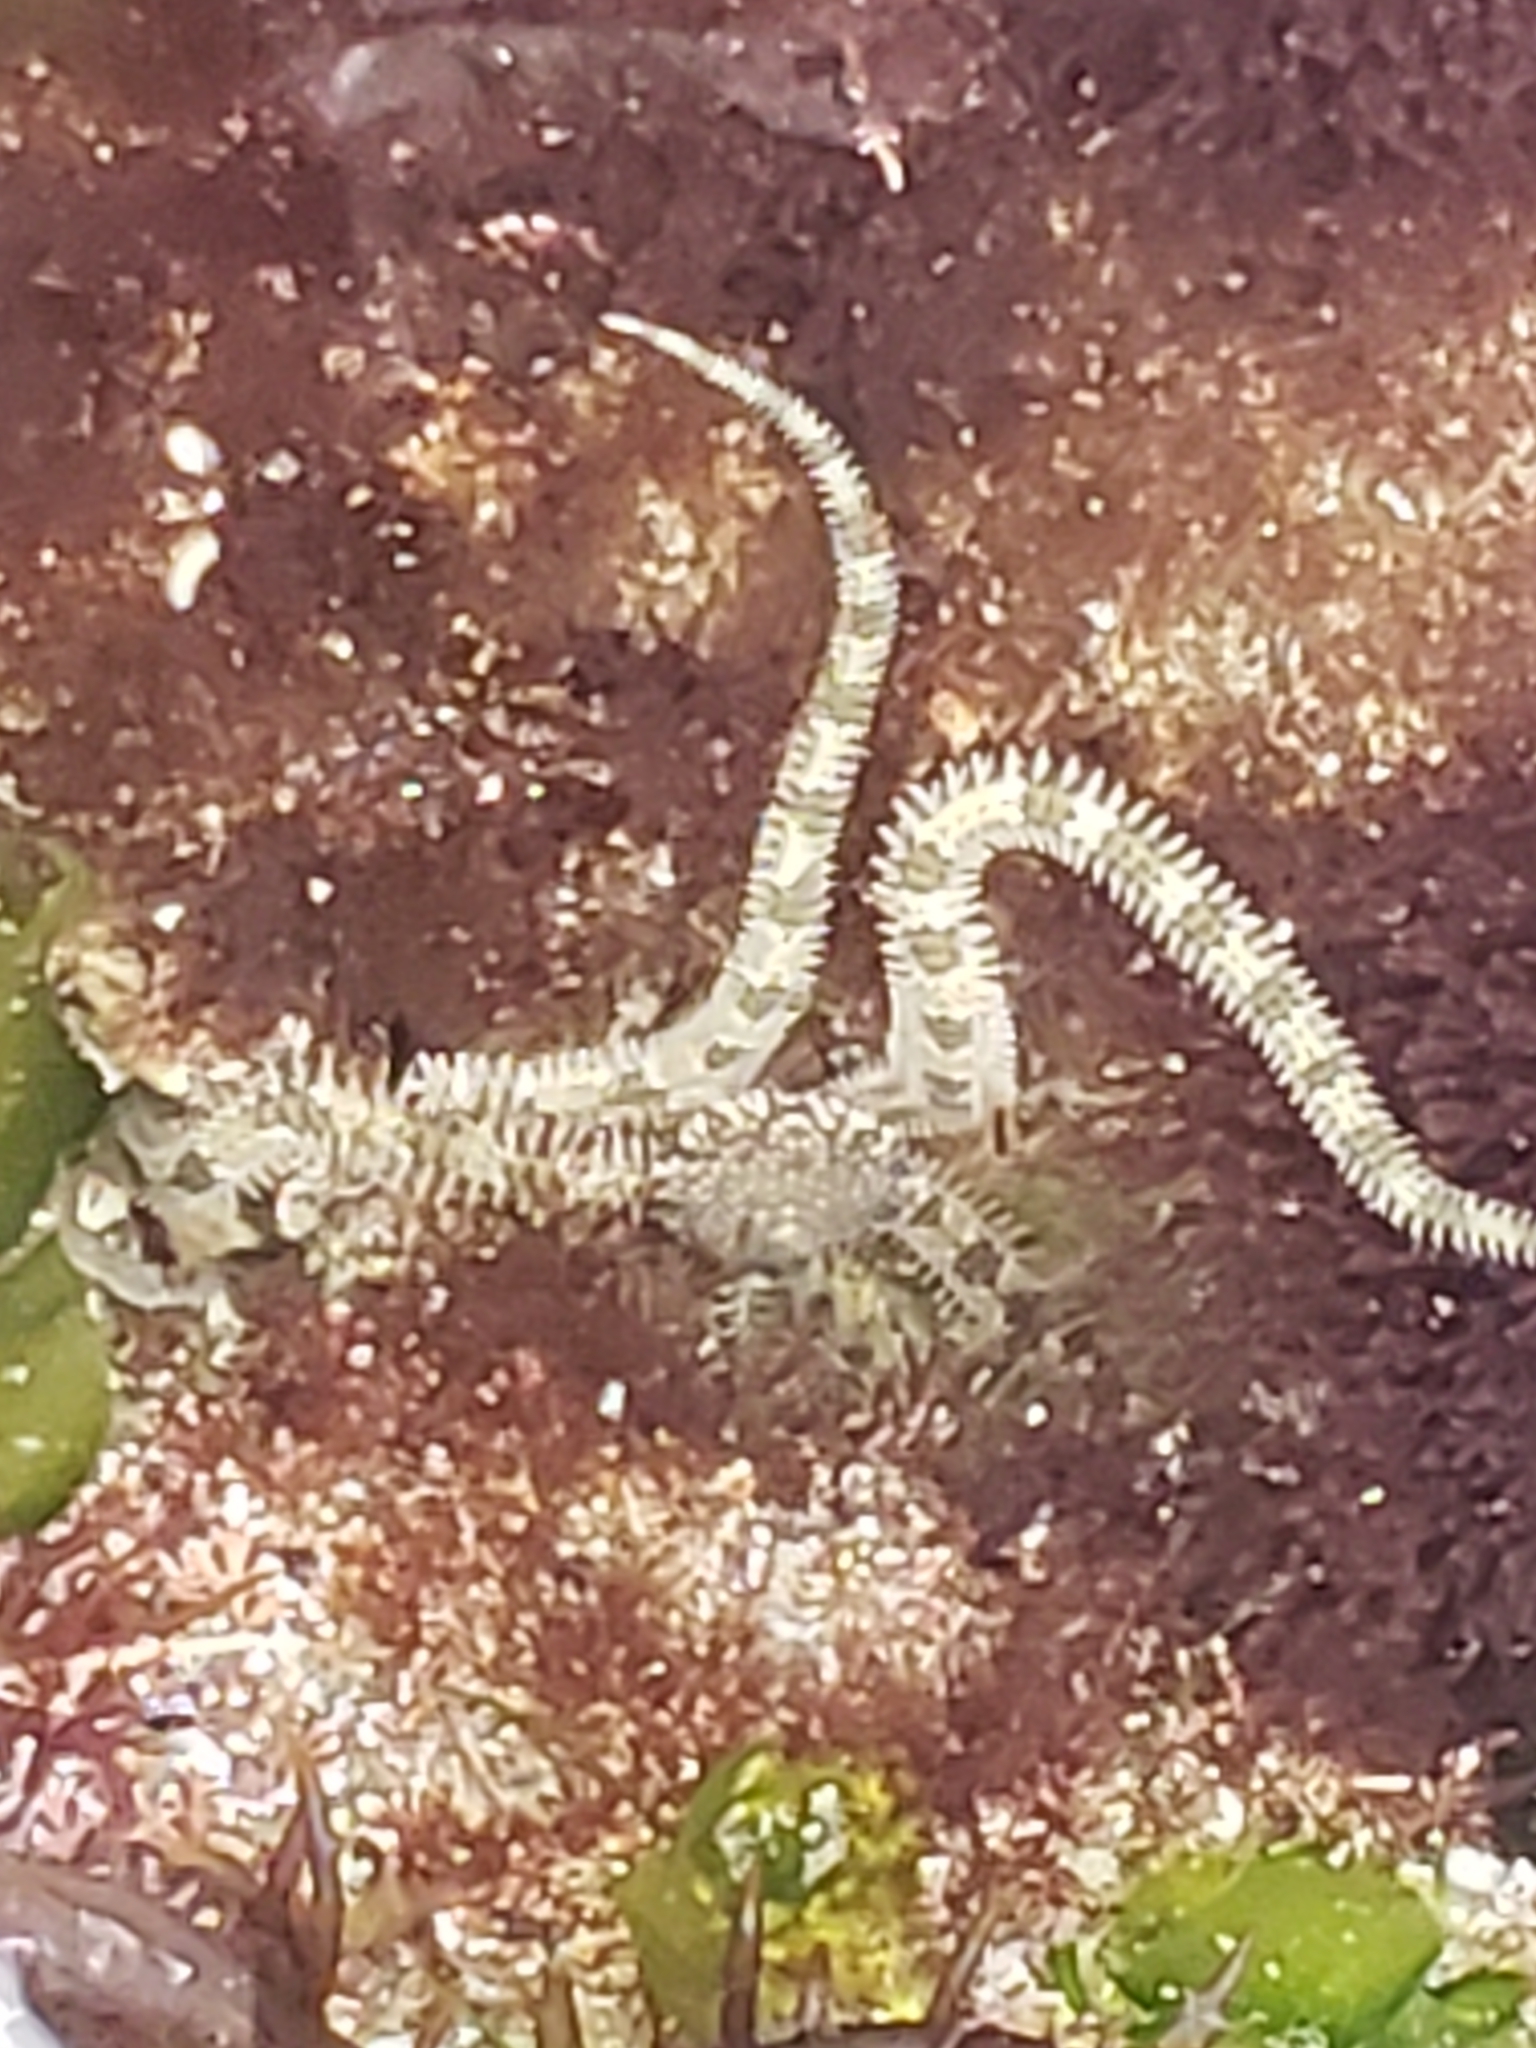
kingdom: Animalia
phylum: Echinodermata
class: Ophiuroidea
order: Amphilepidida
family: Ophionereididae
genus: Ophionereis
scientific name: Ophionereis annulata
